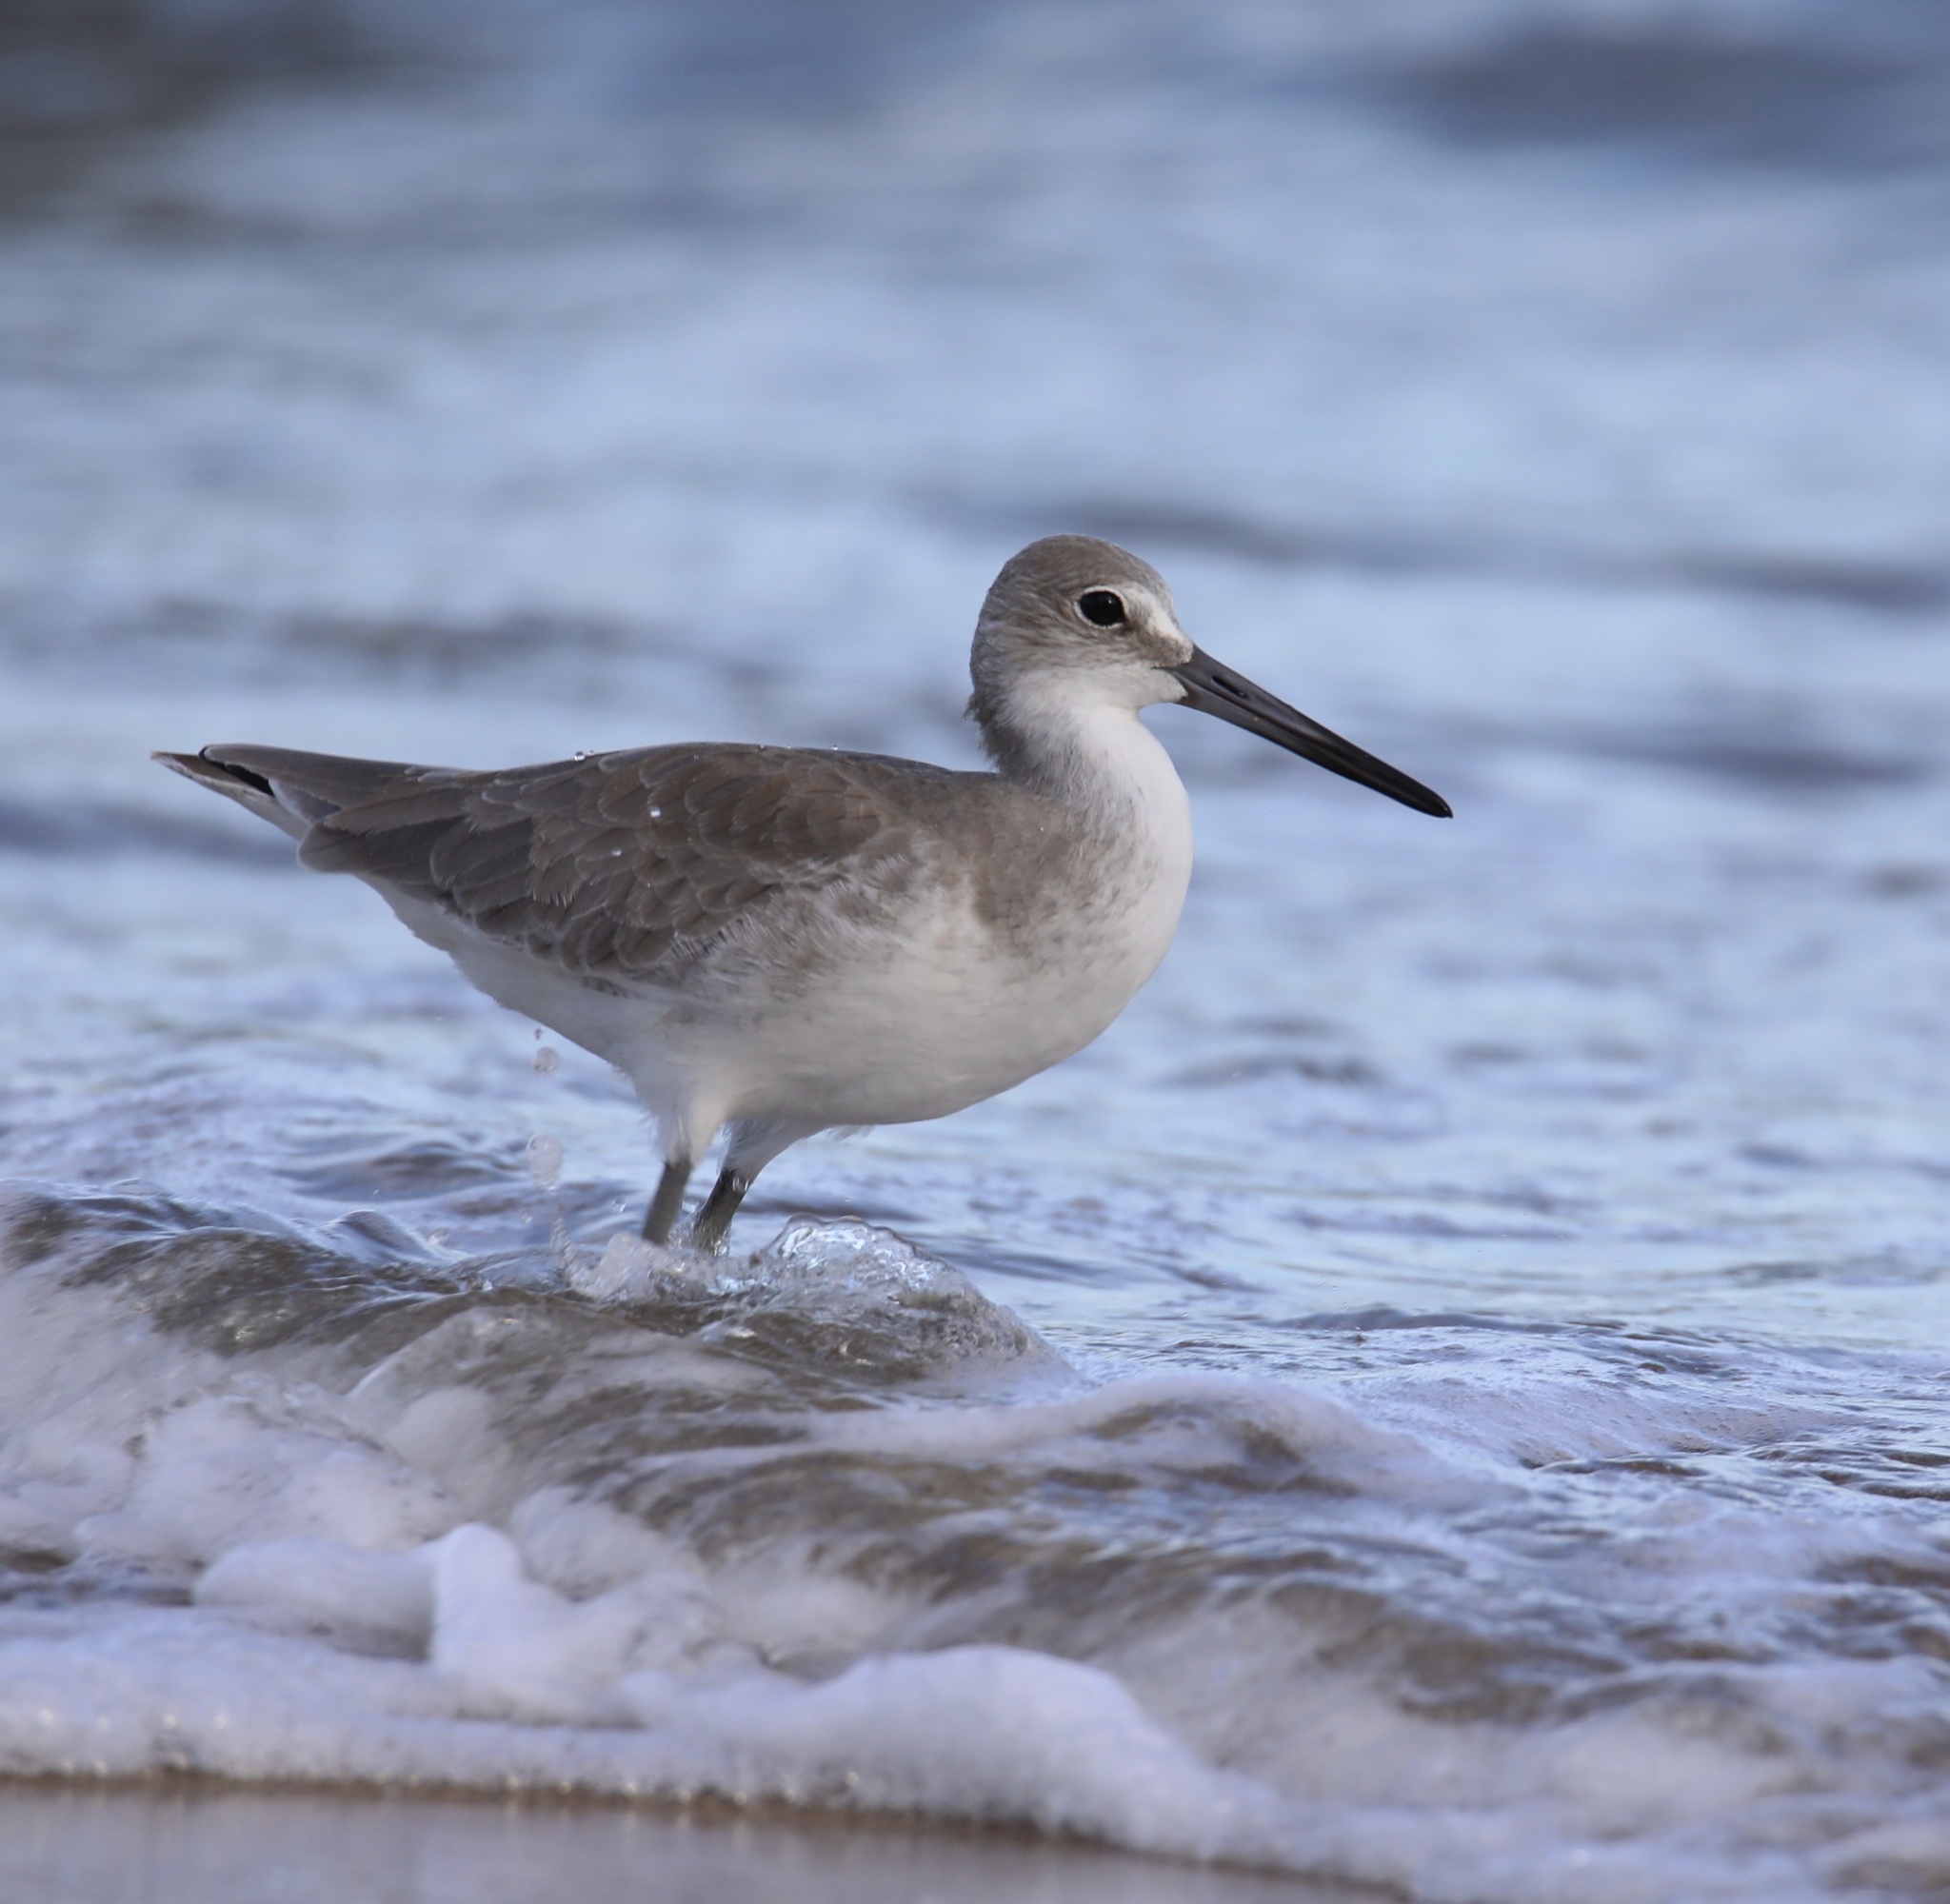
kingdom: Animalia
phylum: Chordata
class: Aves
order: Charadriiformes
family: Scolopacidae
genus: Tringa
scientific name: Tringa semipalmata
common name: Willet
